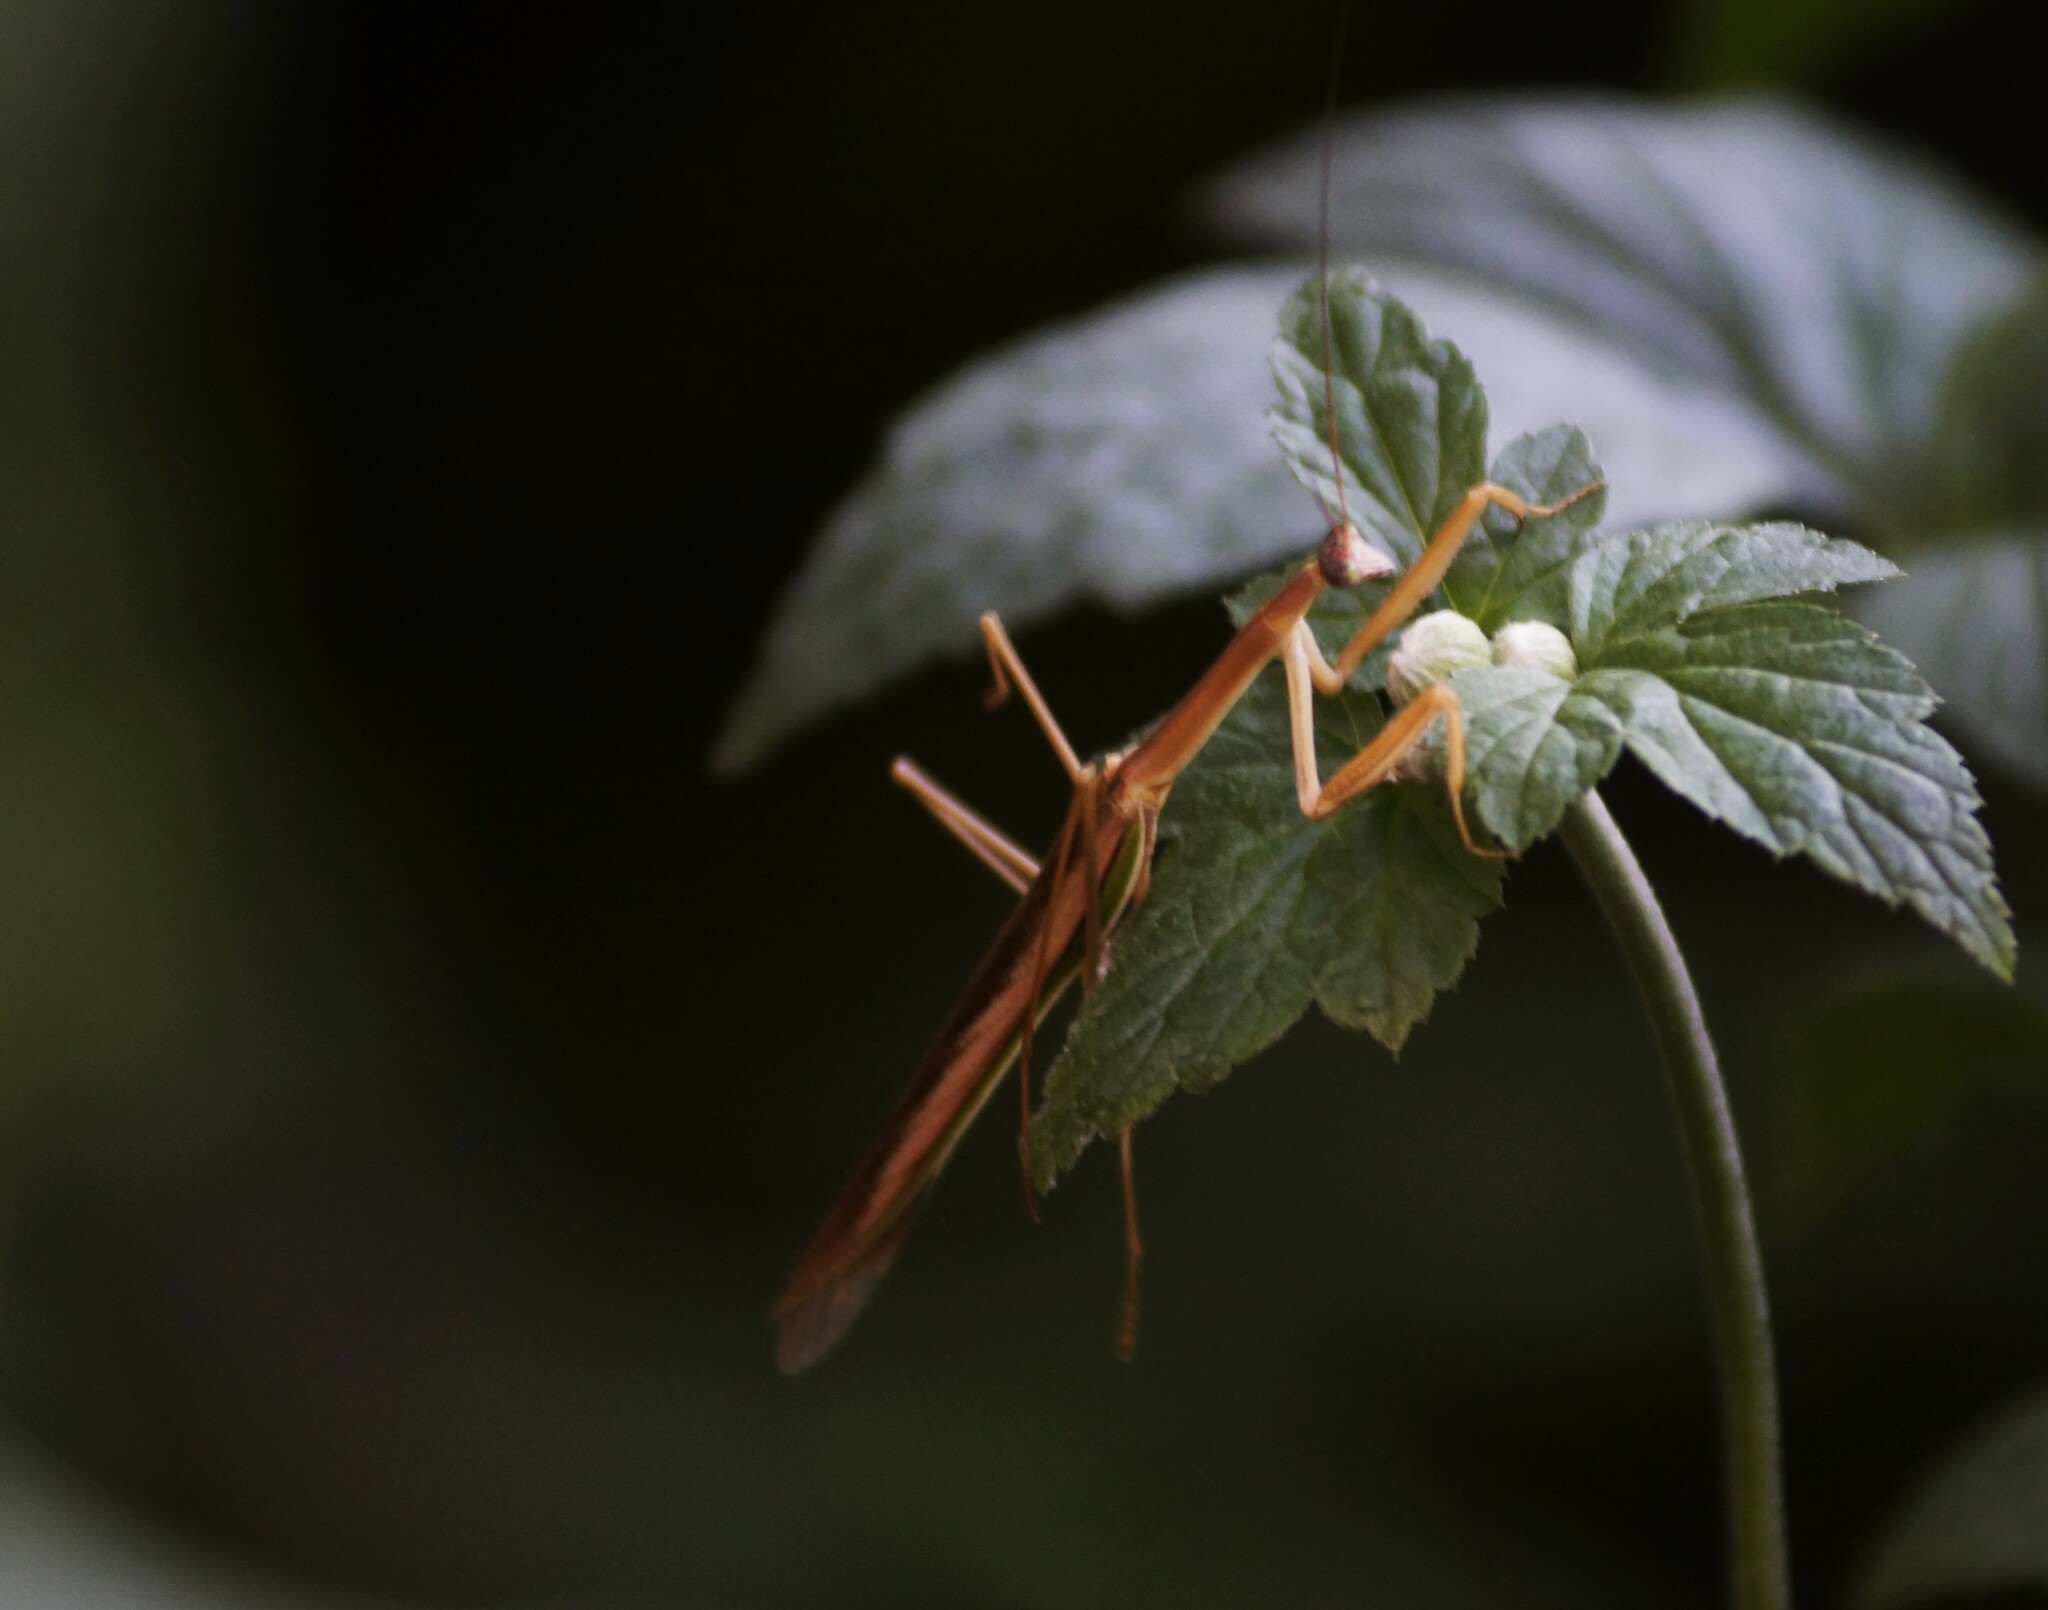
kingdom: Animalia
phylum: Arthropoda
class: Insecta
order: Mantodea
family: Mantidae
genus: Tenodera
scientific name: Tenodera australasiae
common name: Purple-winged mantis
